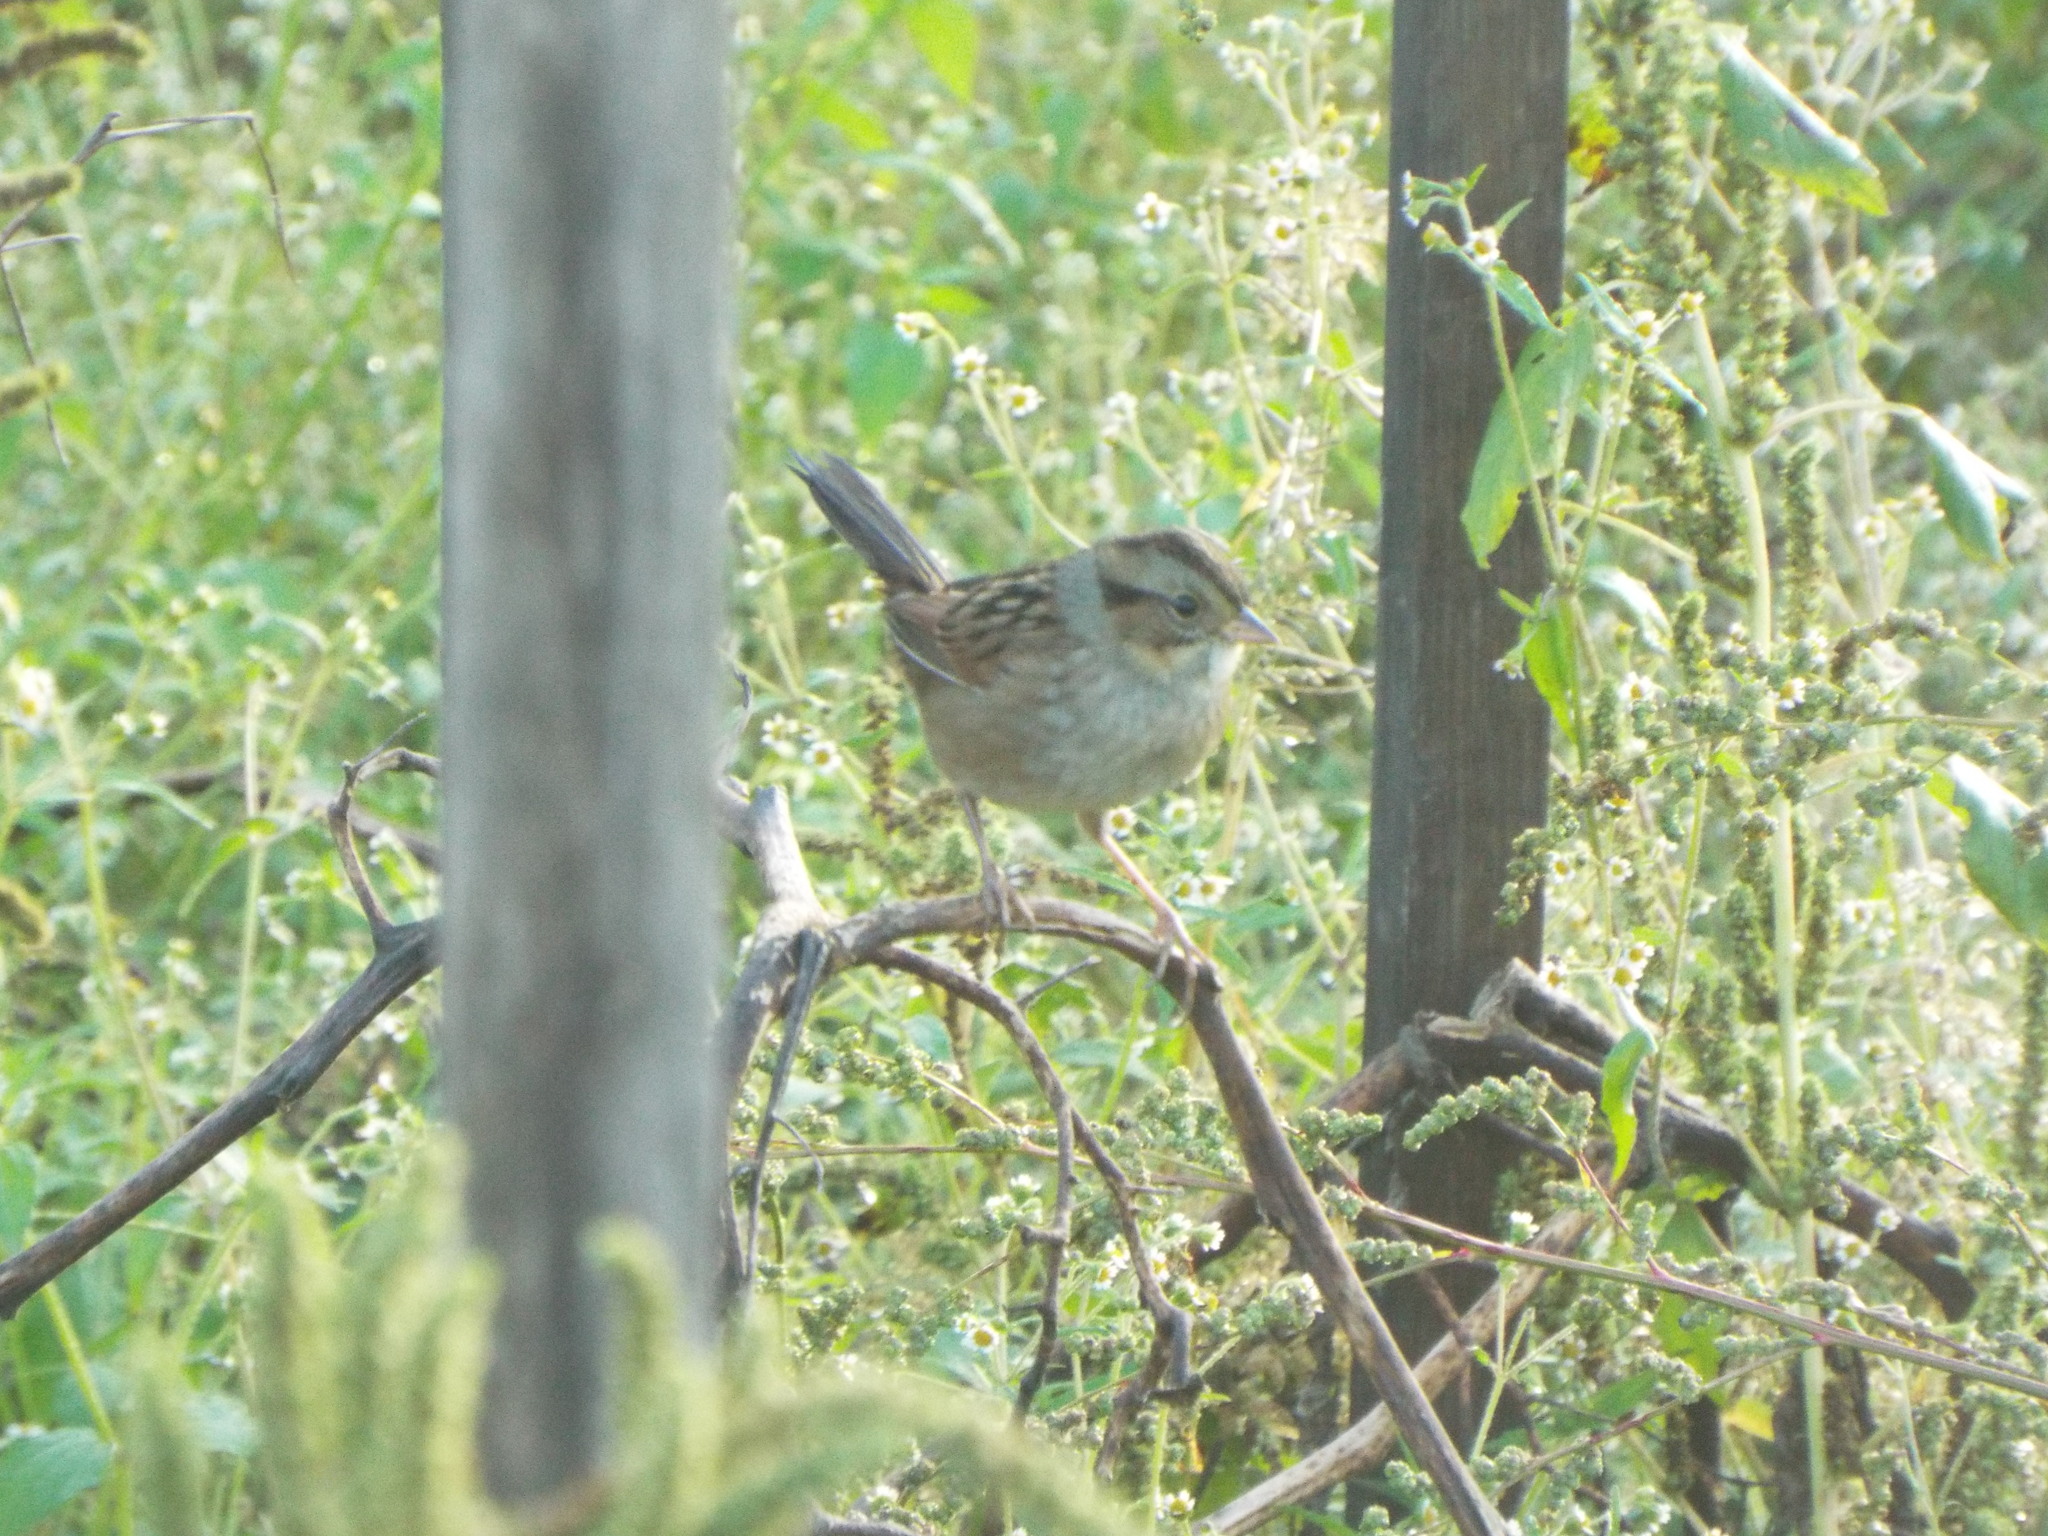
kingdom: Animalia
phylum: Chordata
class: Aves
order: Passeriformes
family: Passerellidae
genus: Melospiza
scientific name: Melospiza georgiana
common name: Swamp sparrow
